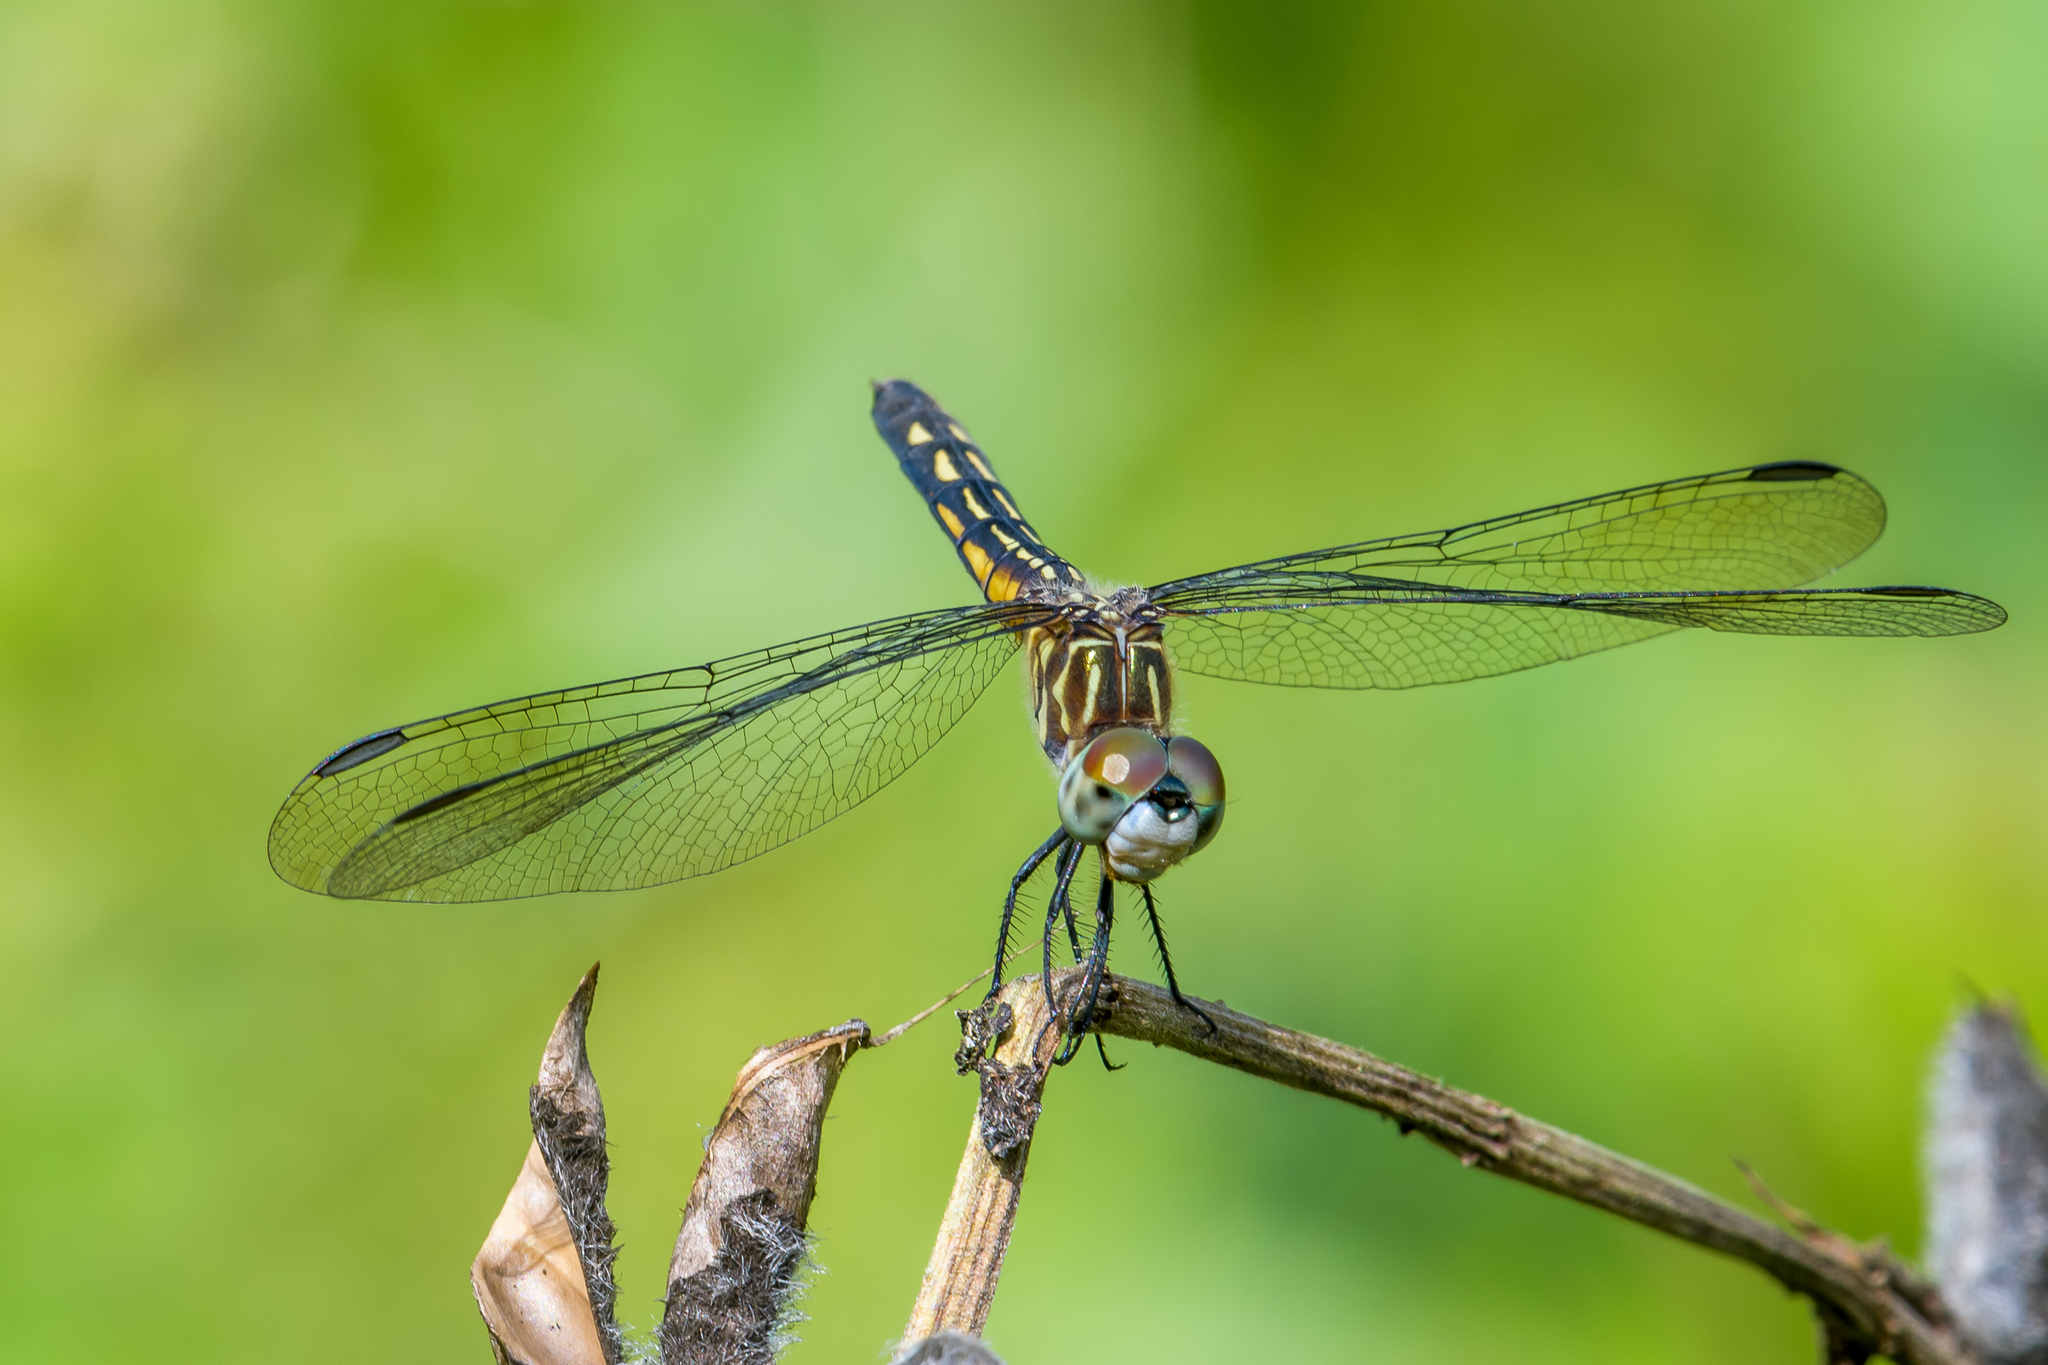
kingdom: Animalia
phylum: Arthropoda
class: Insecta
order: Odonata
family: Libellulidae
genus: Pachydiplax
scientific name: Pachydiplax longipennis
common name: Blue dasher
